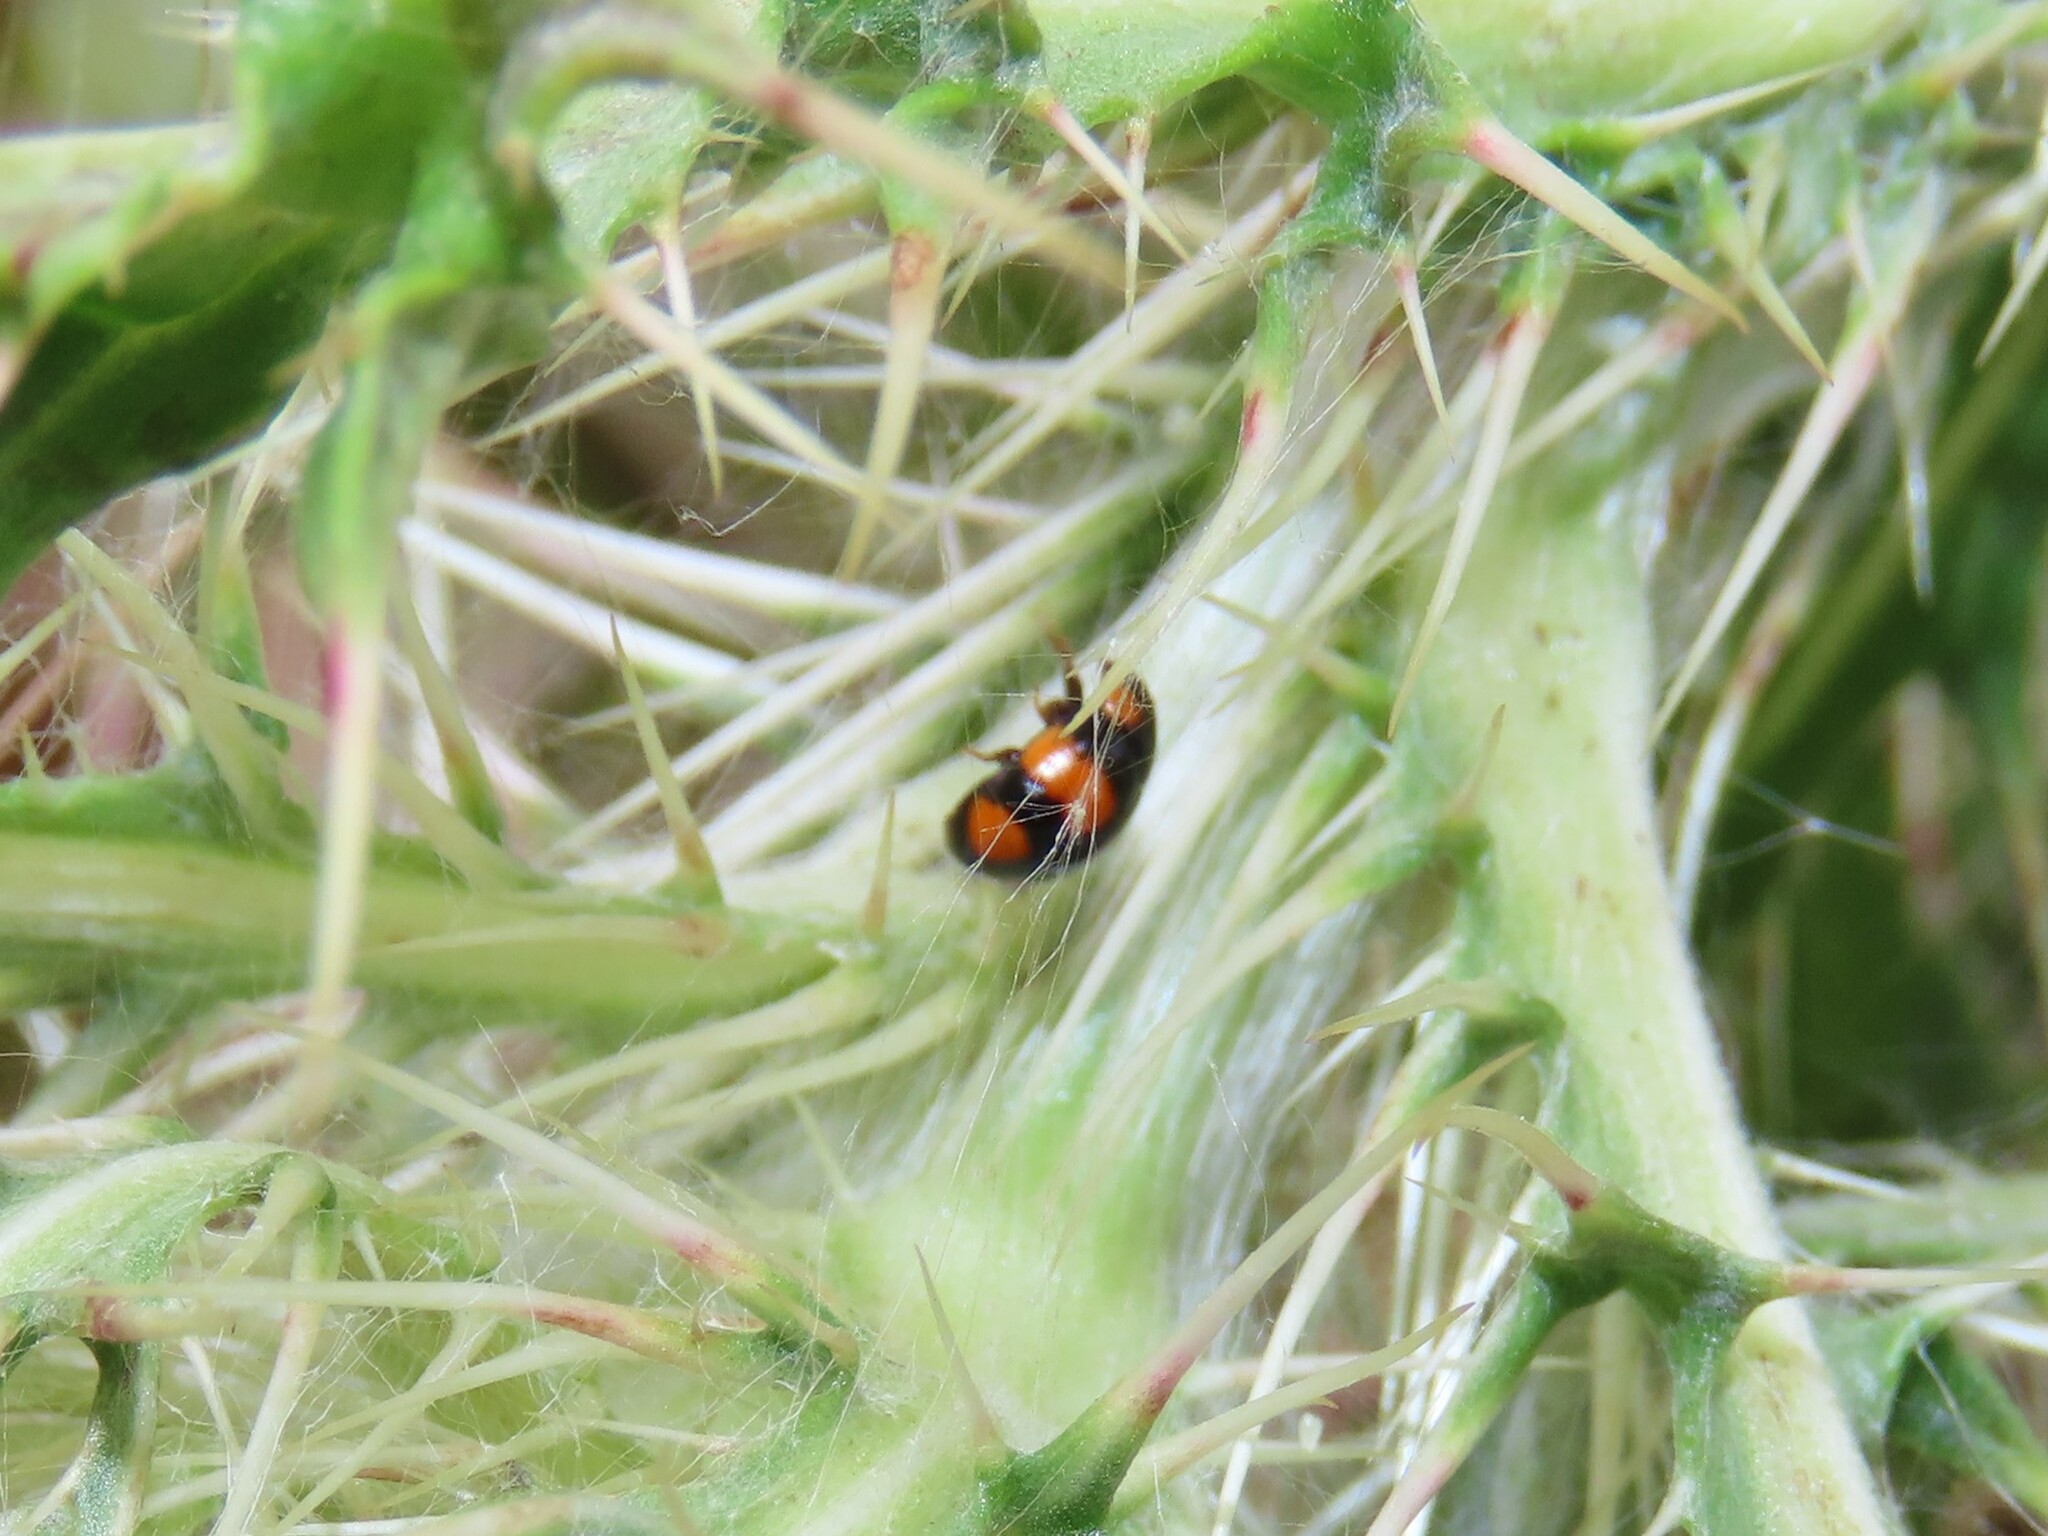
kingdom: Animalia
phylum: Arthropoda
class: Insecta
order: Coleoptera
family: Coccinellidae
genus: Brachiacantha
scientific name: Brachiacantha dentipes
